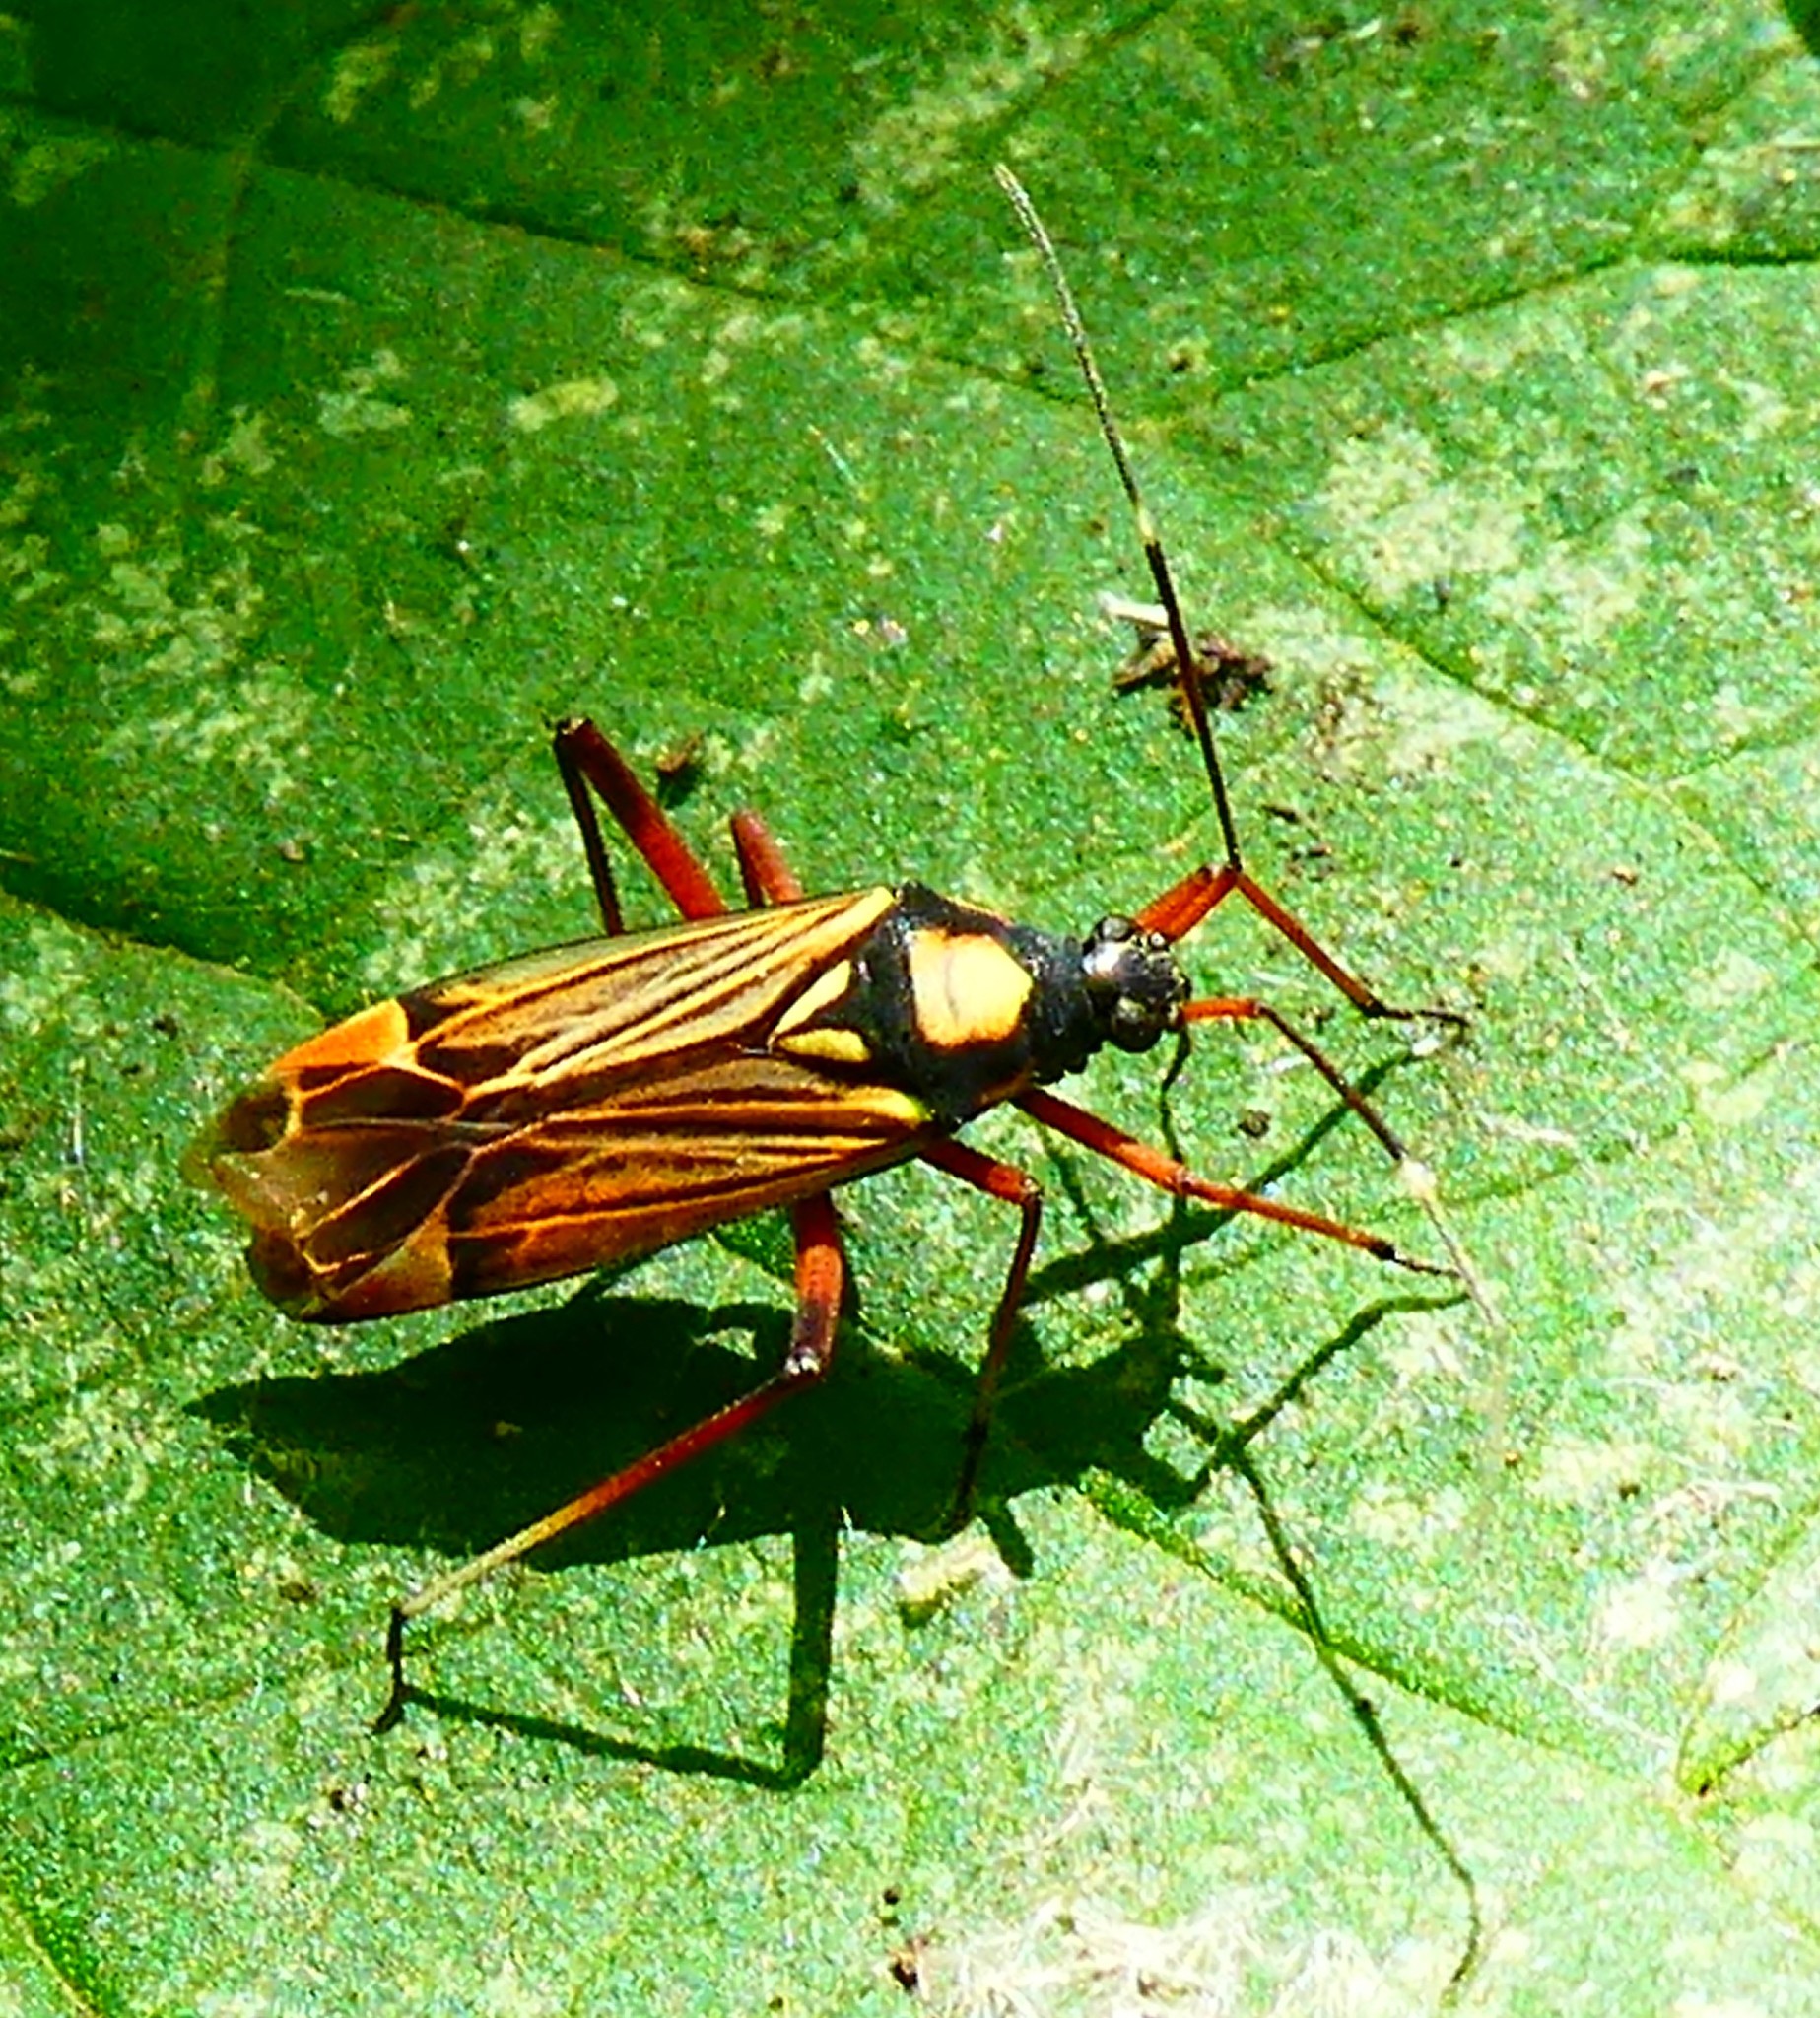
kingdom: Animalia
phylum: Arthropoda
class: Insecta
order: Hemiptera
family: Miridae
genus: Miris
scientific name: Miris striatus
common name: Fine streaked bugkin
